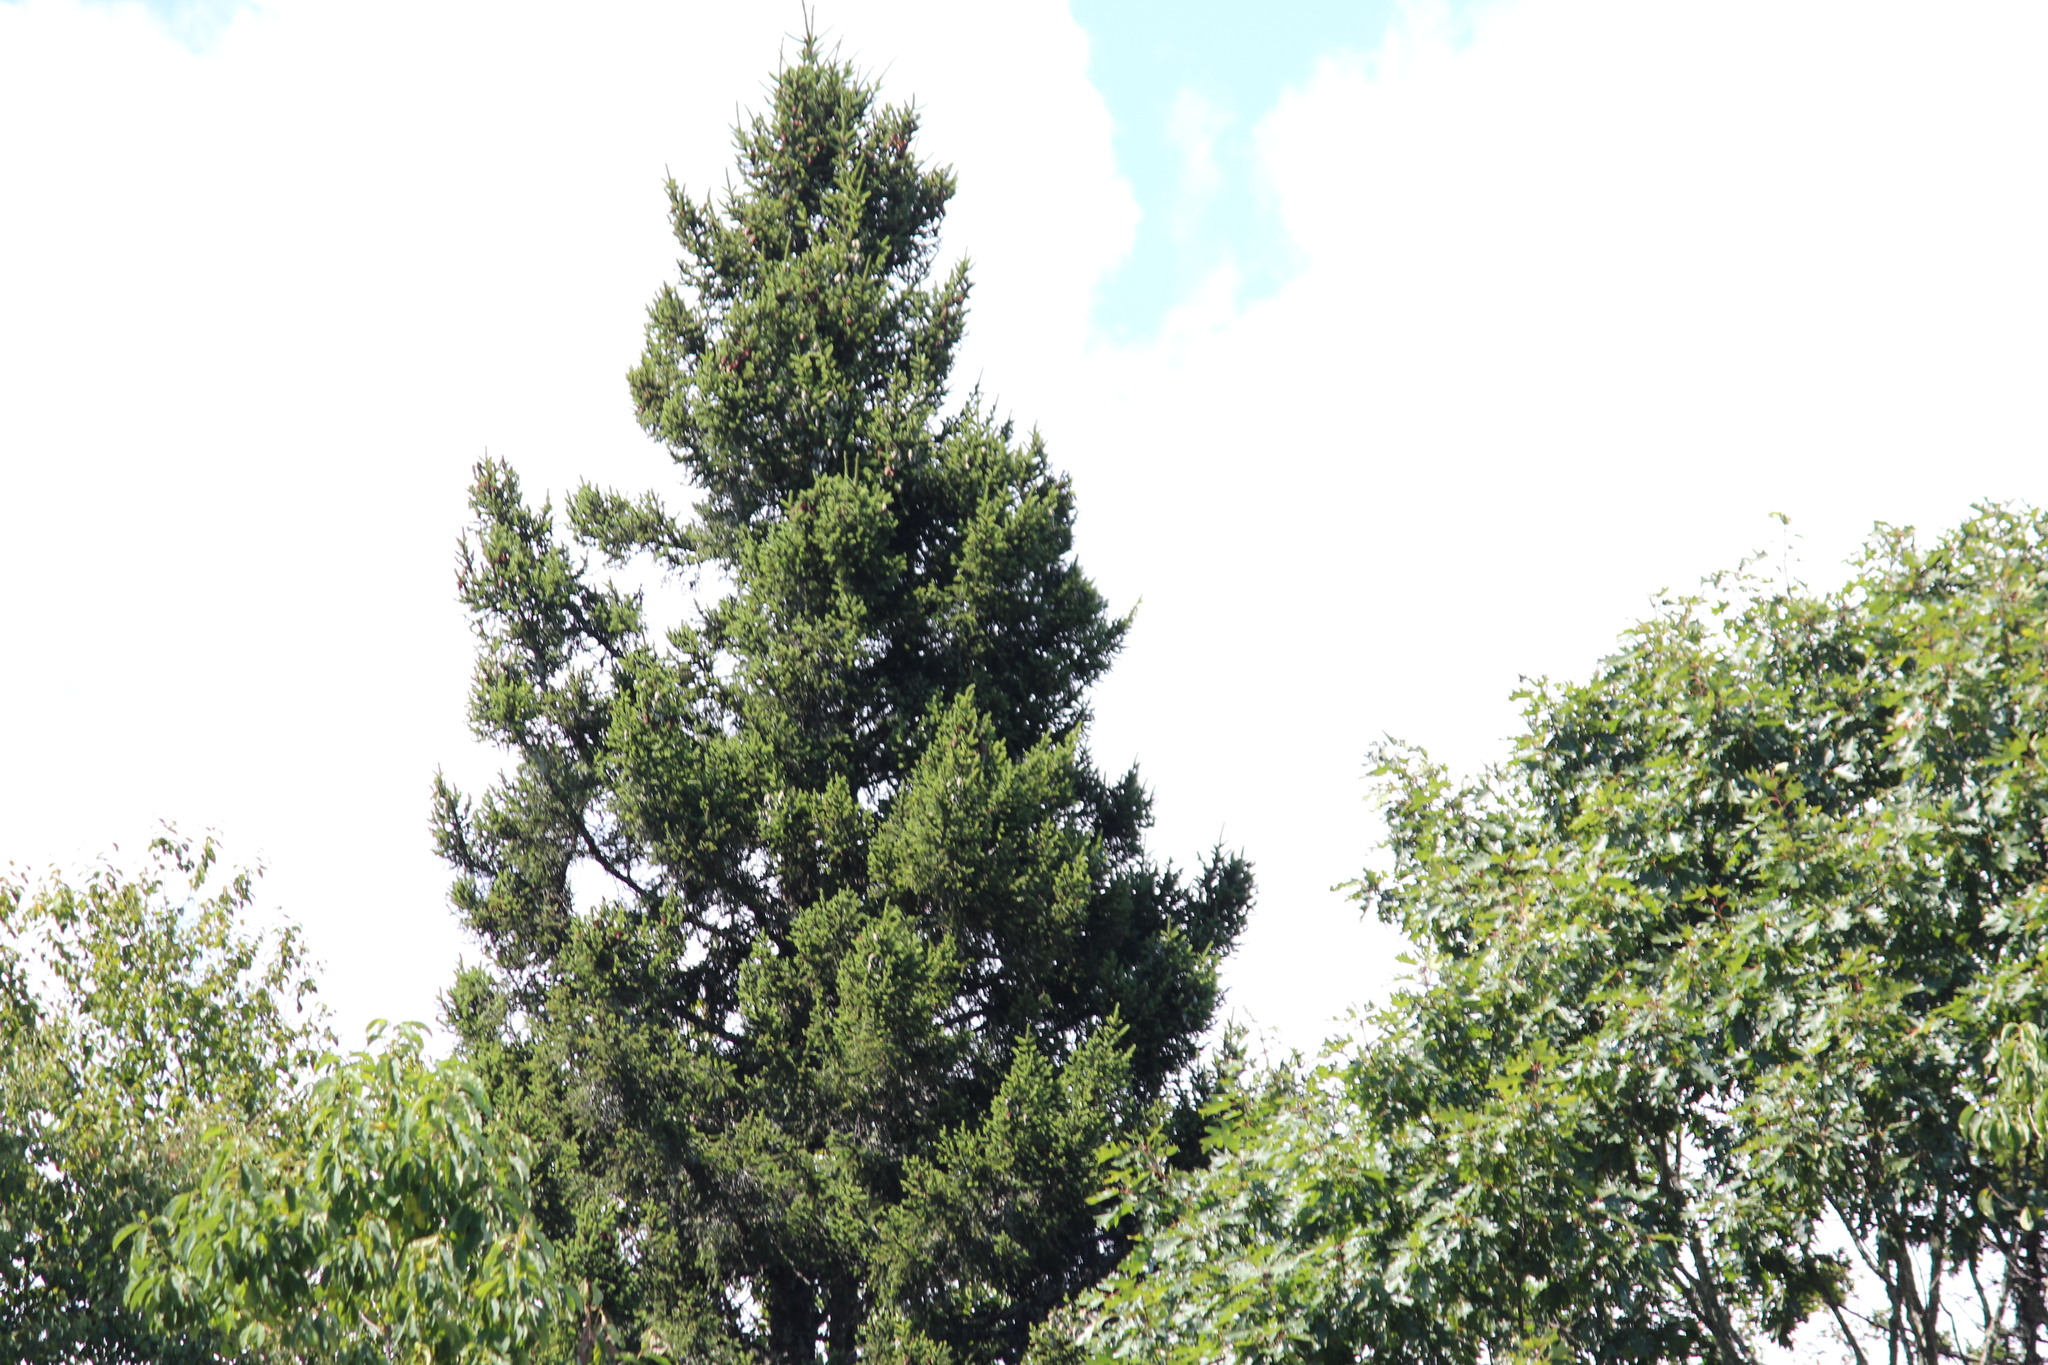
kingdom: Plantae
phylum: Tracheophyta
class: Pinopsida
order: Pinales
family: Pinaceae
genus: Picea
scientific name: Picea rubens
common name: Red spruce
